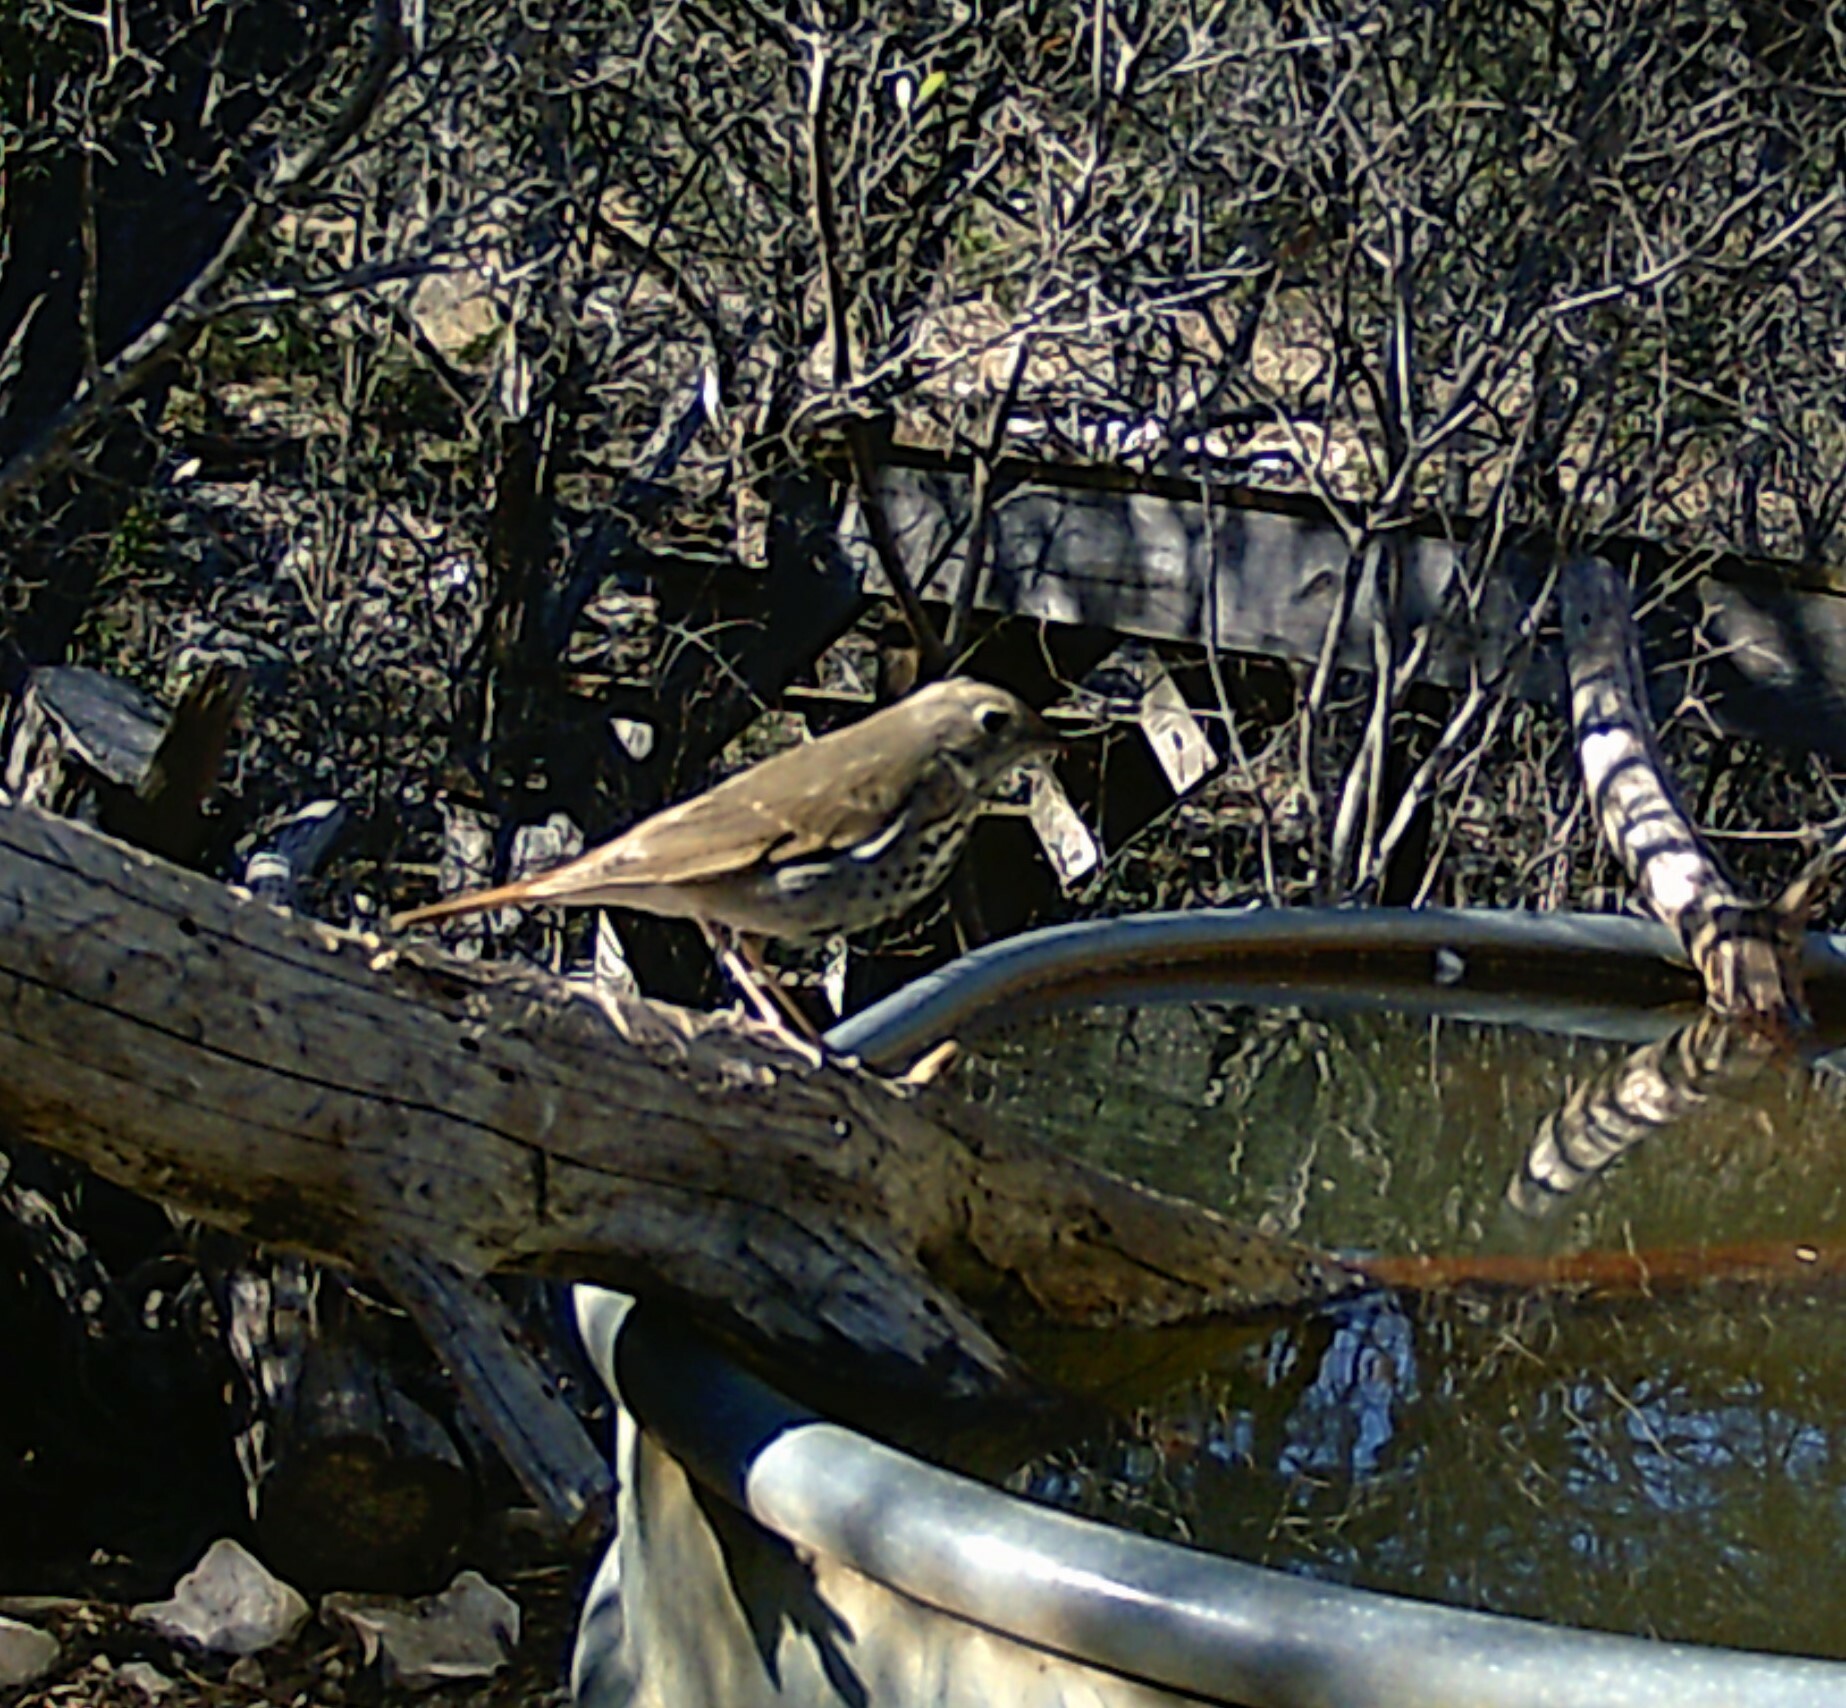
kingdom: Animalia
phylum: Chordata
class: Aves
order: Passeriformes
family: Turdidae
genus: Catharus
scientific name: Catharus guttatus
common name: Hermit thrush
